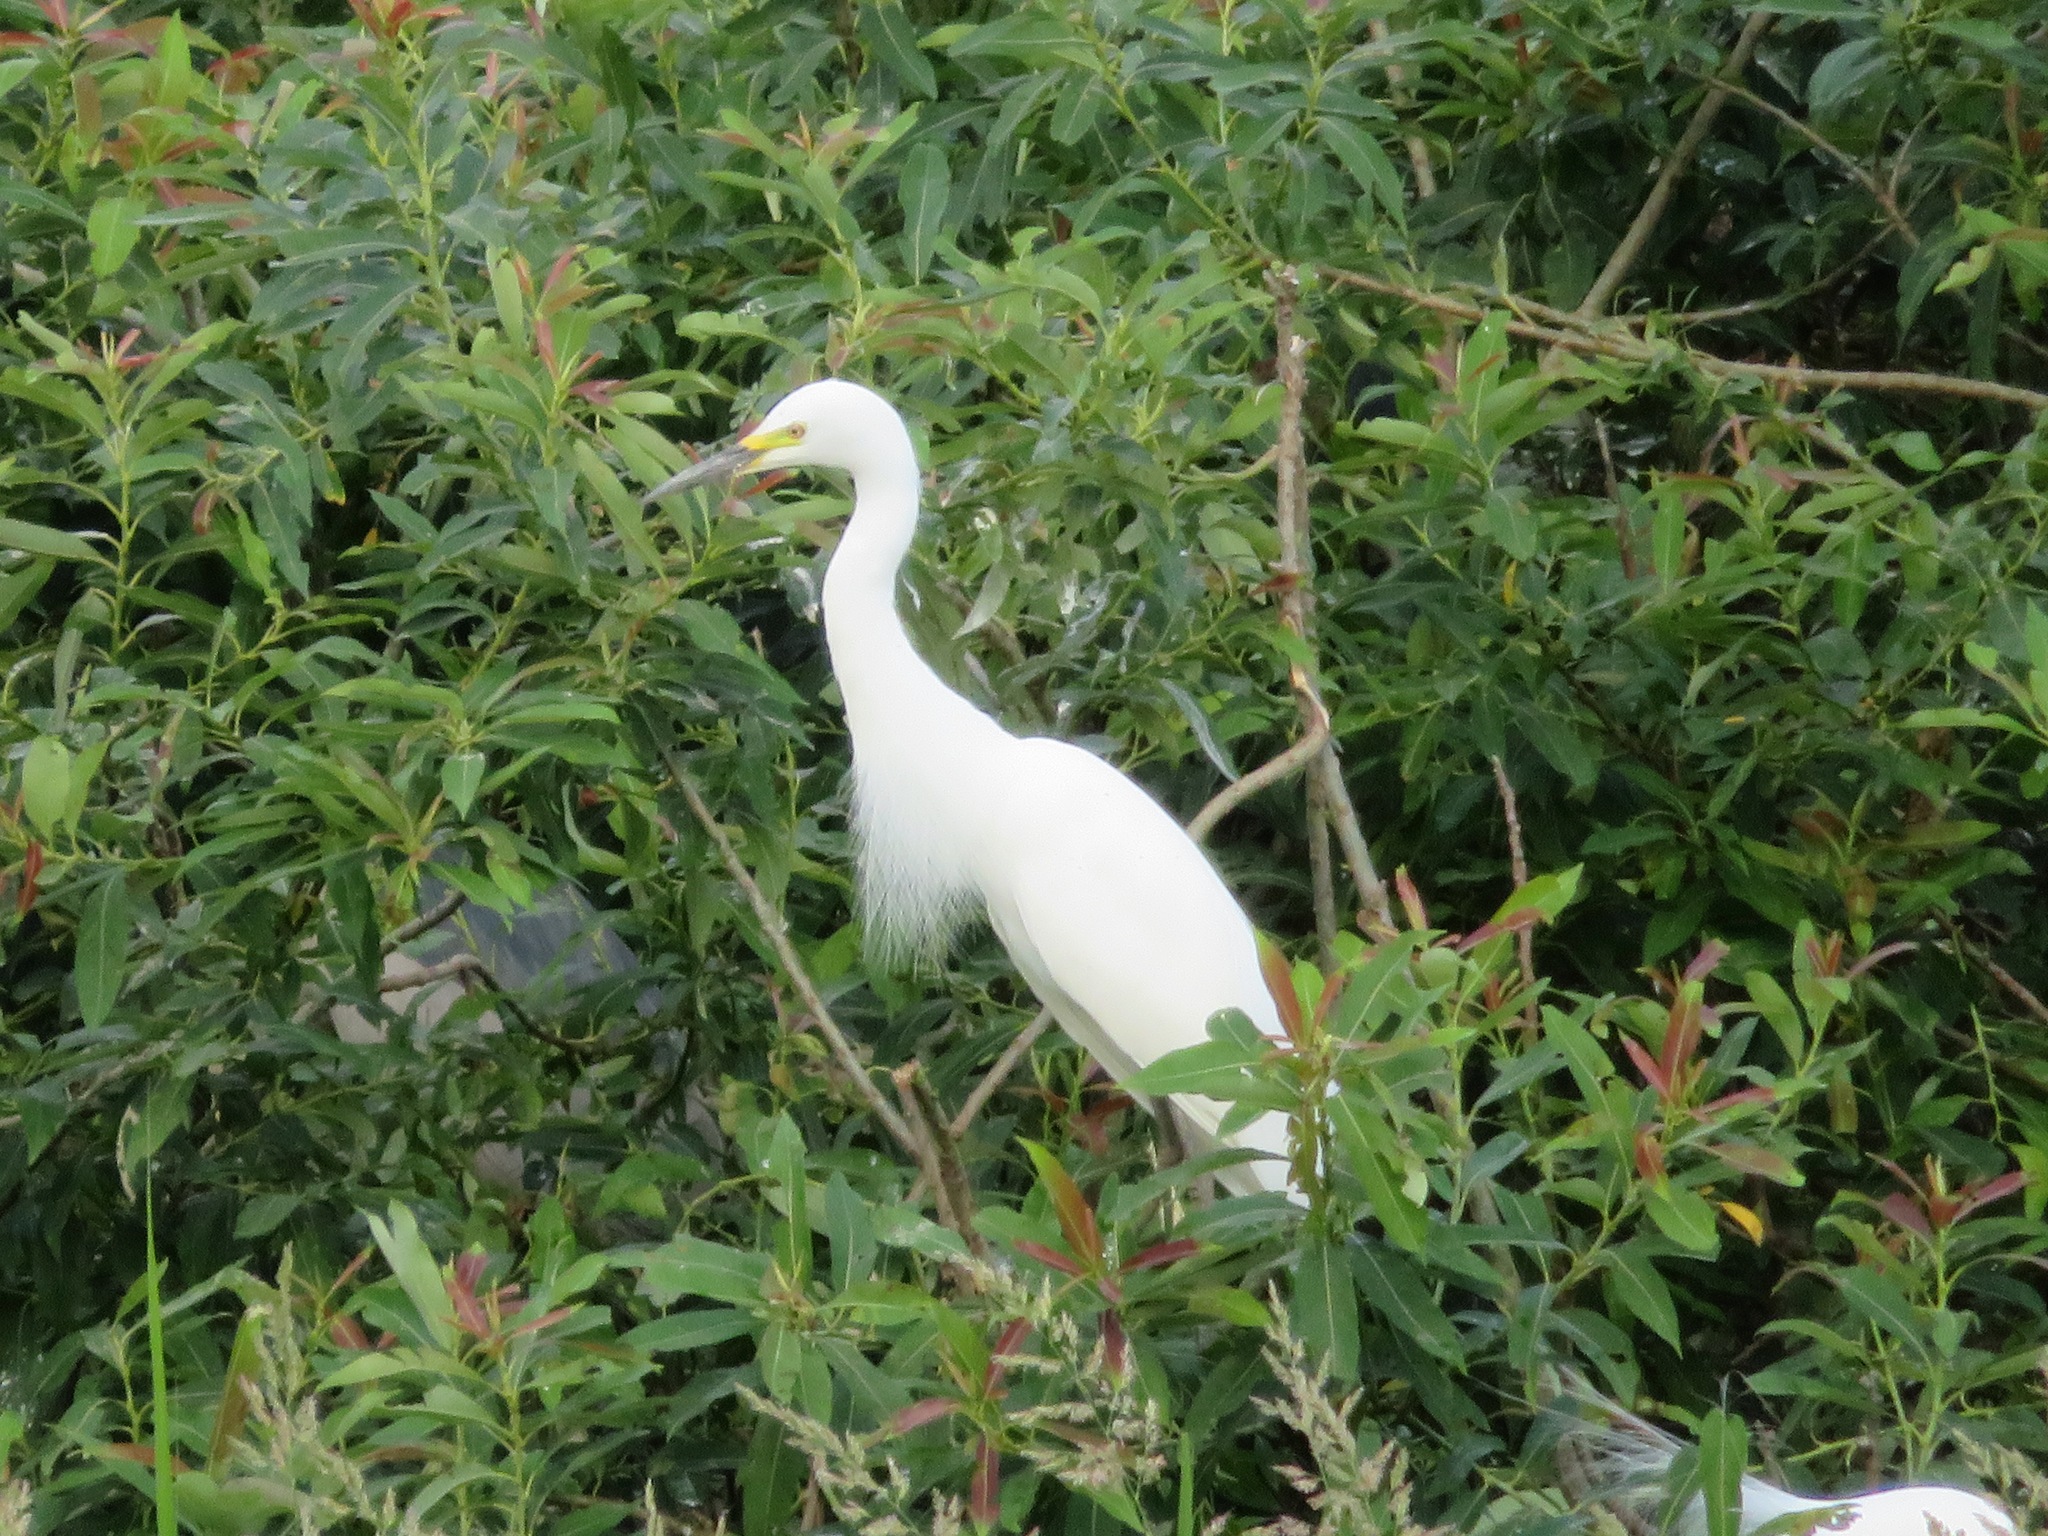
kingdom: Animalia
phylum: Chordata
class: Aves
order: Pelecaniformes
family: Ardeidae
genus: Egretta
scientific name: Egretta intermedia
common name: Intermediate egret
